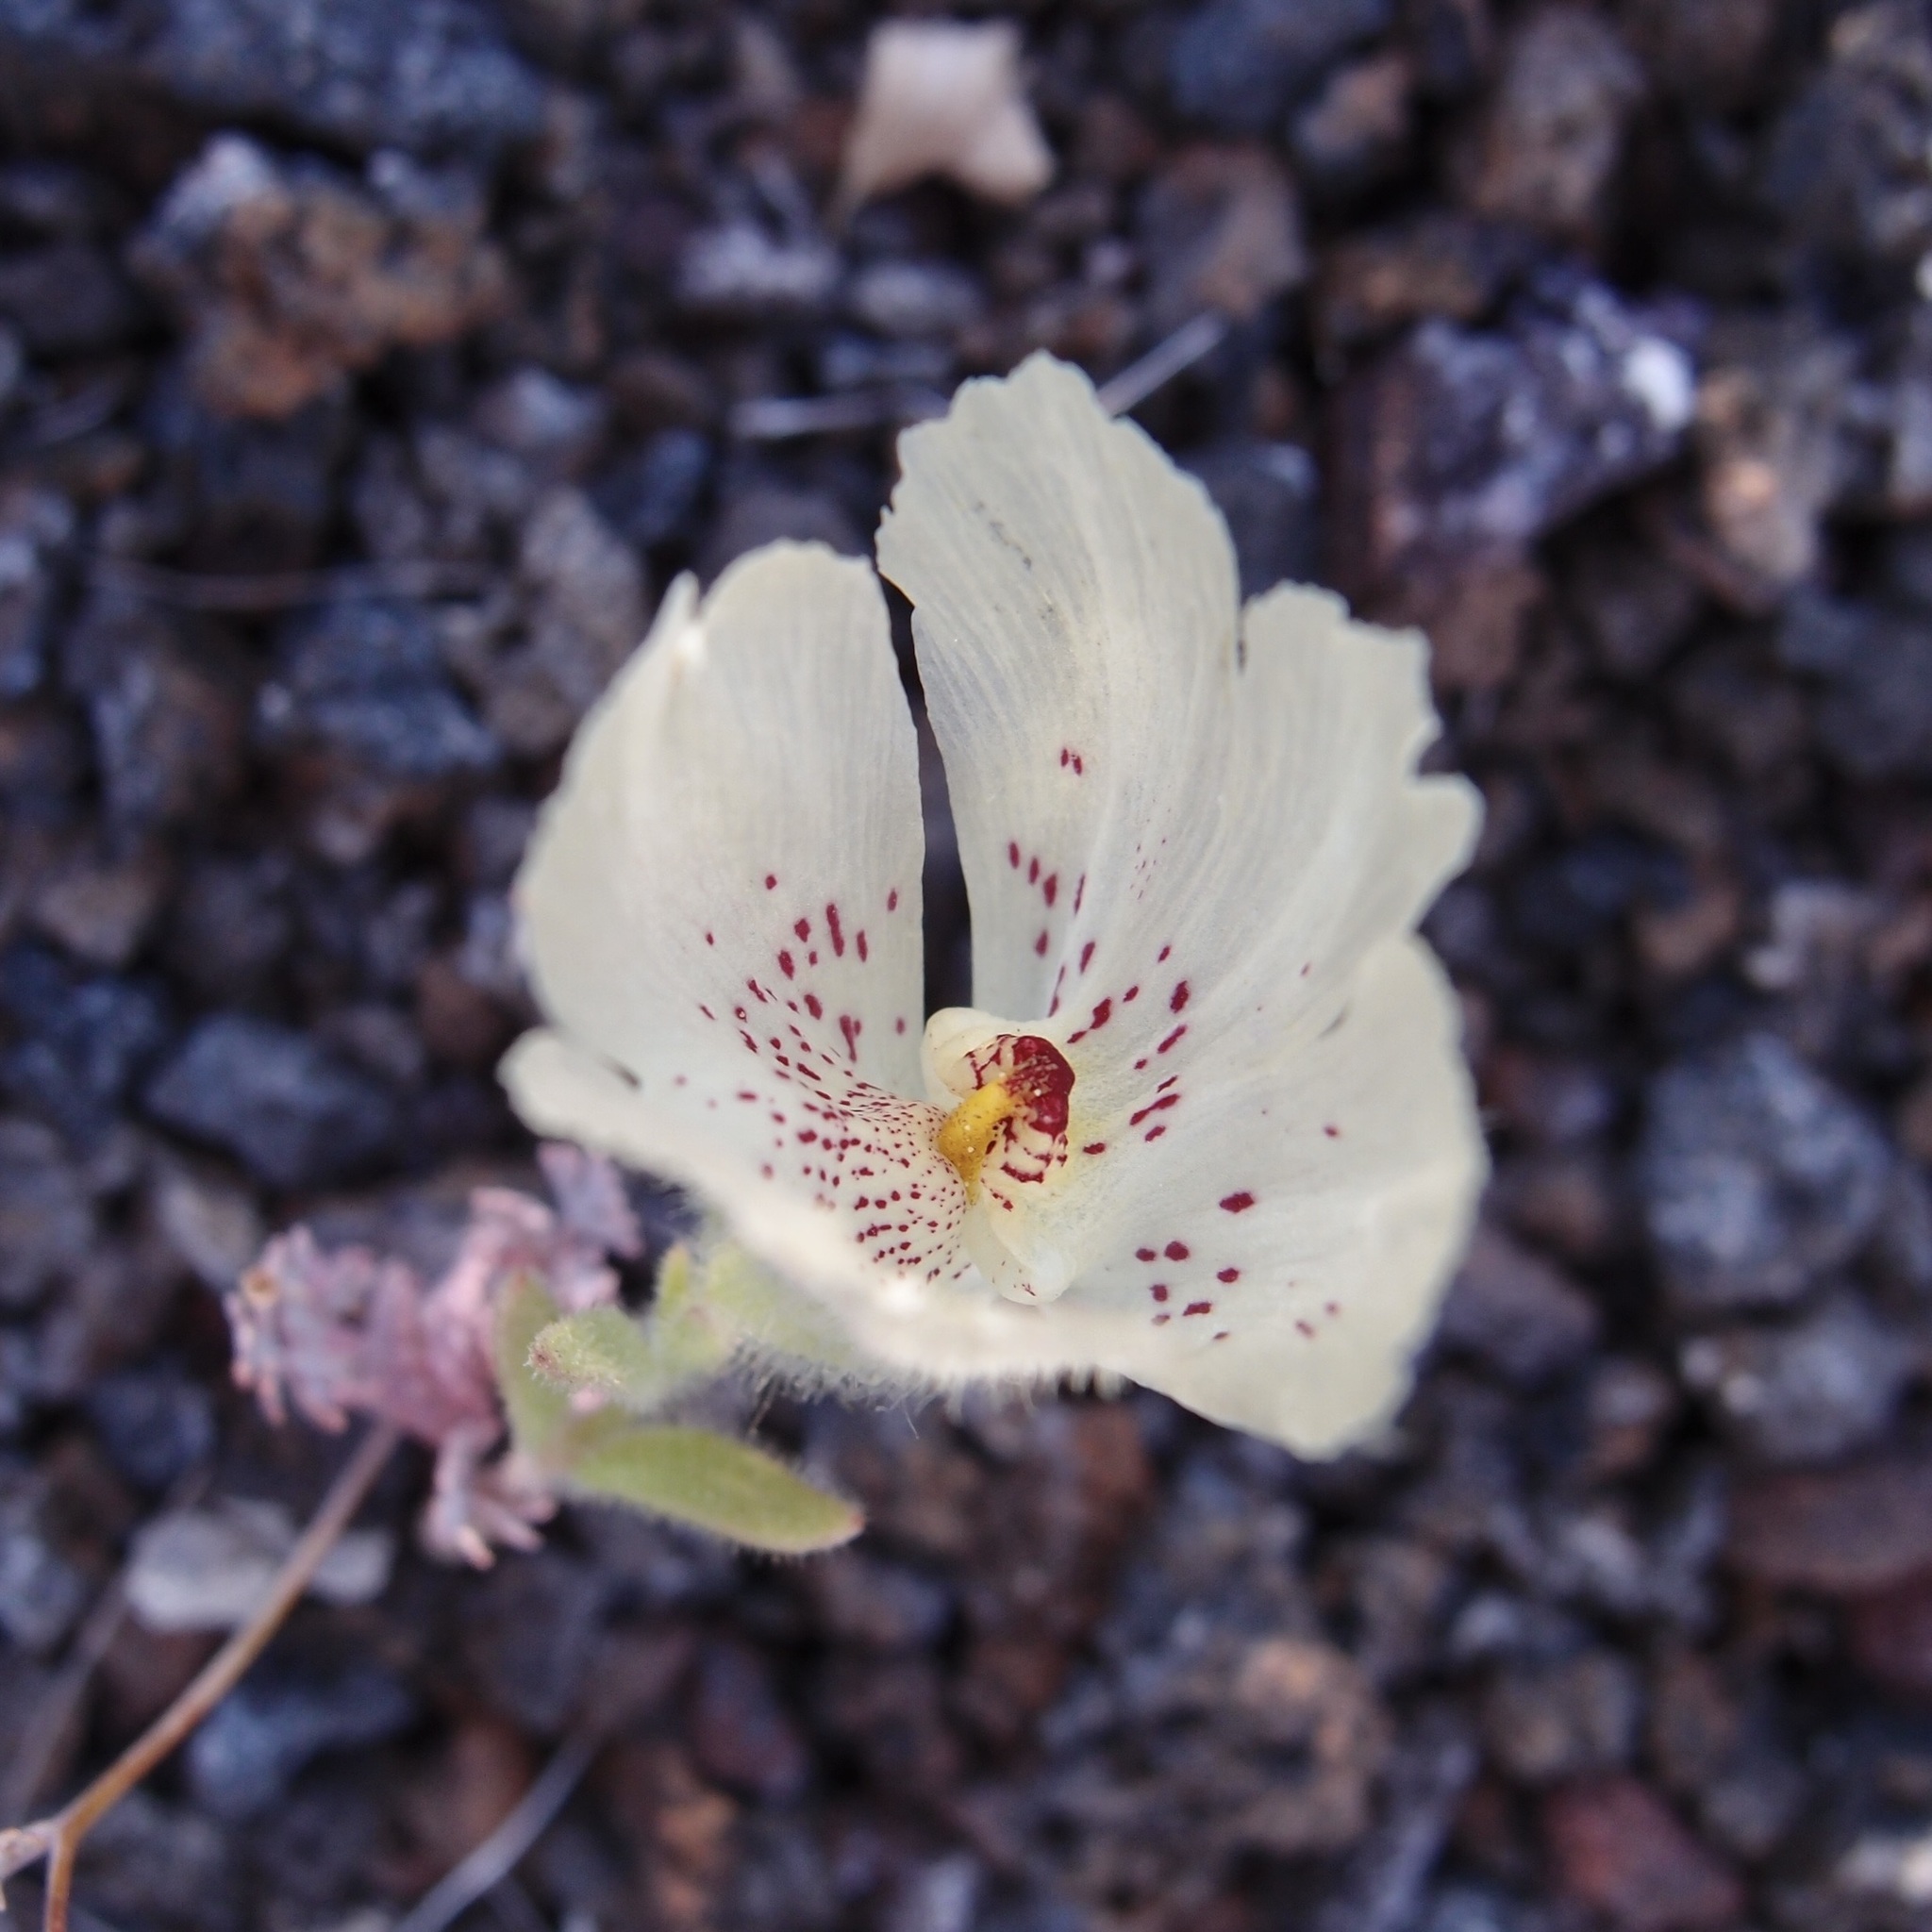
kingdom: Plantae
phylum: Tracheophyta
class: Magnoliopsida
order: Lamiales
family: Plantaginaceae
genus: Mohavea
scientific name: Mohavea confertiflora
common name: Ghost flower
